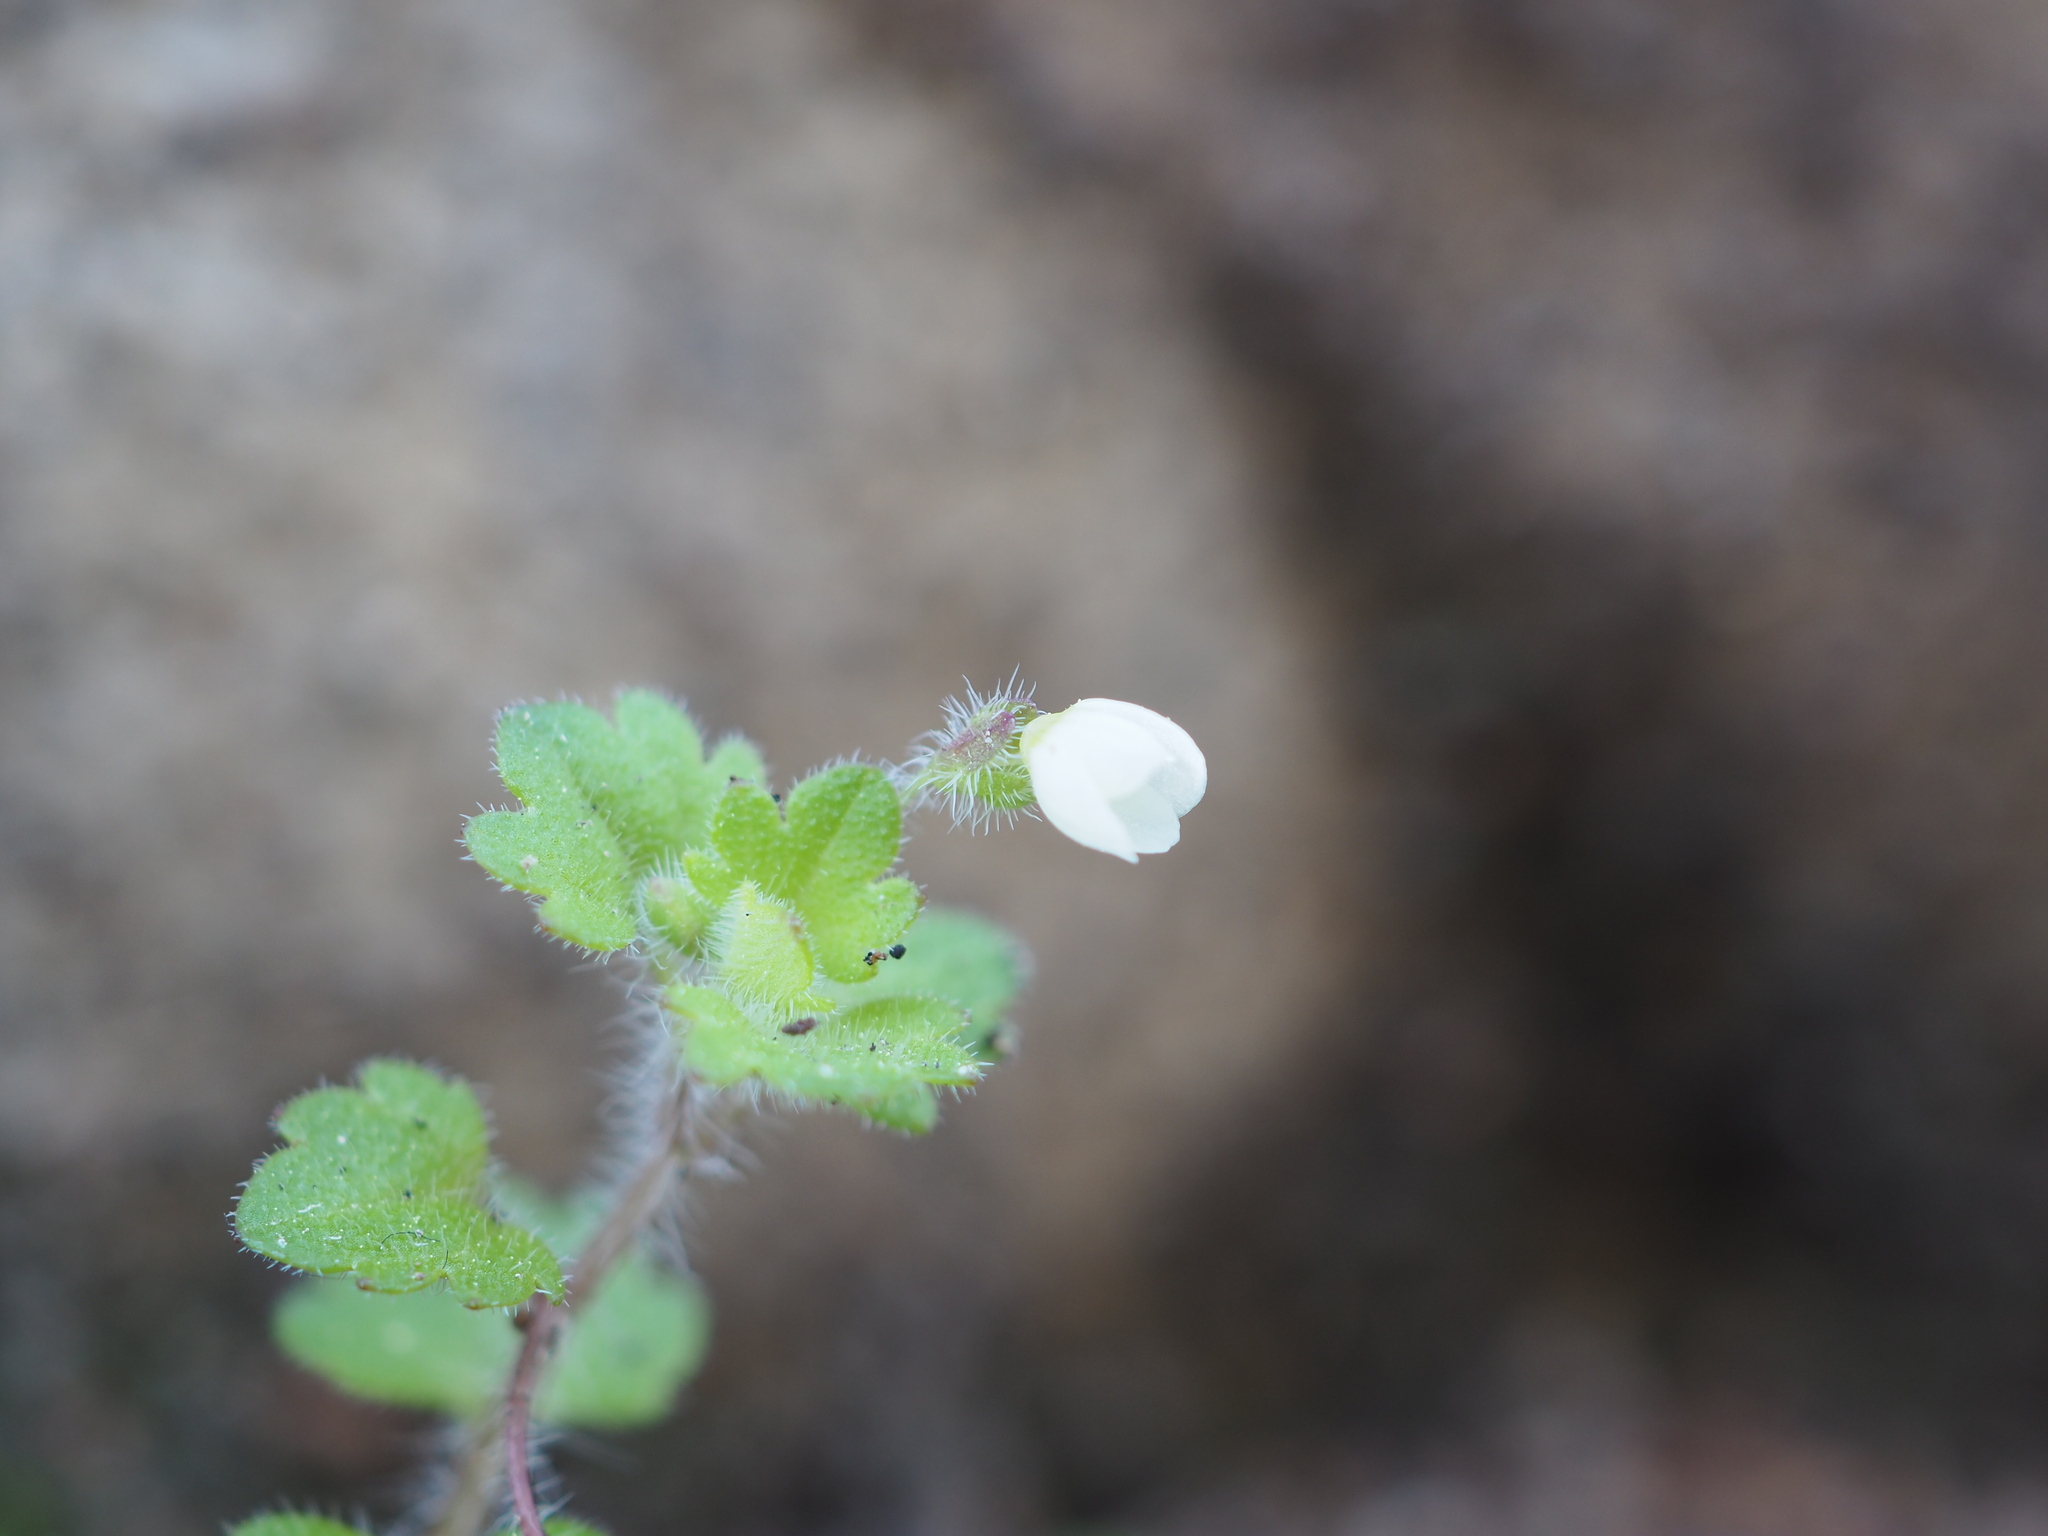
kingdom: Plantae
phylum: Tracheophyta
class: Magnoliopsida
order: Lamiales
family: Plantaginaceae
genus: Veronica
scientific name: Veronica cymbalaria
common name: Pale speedwell
